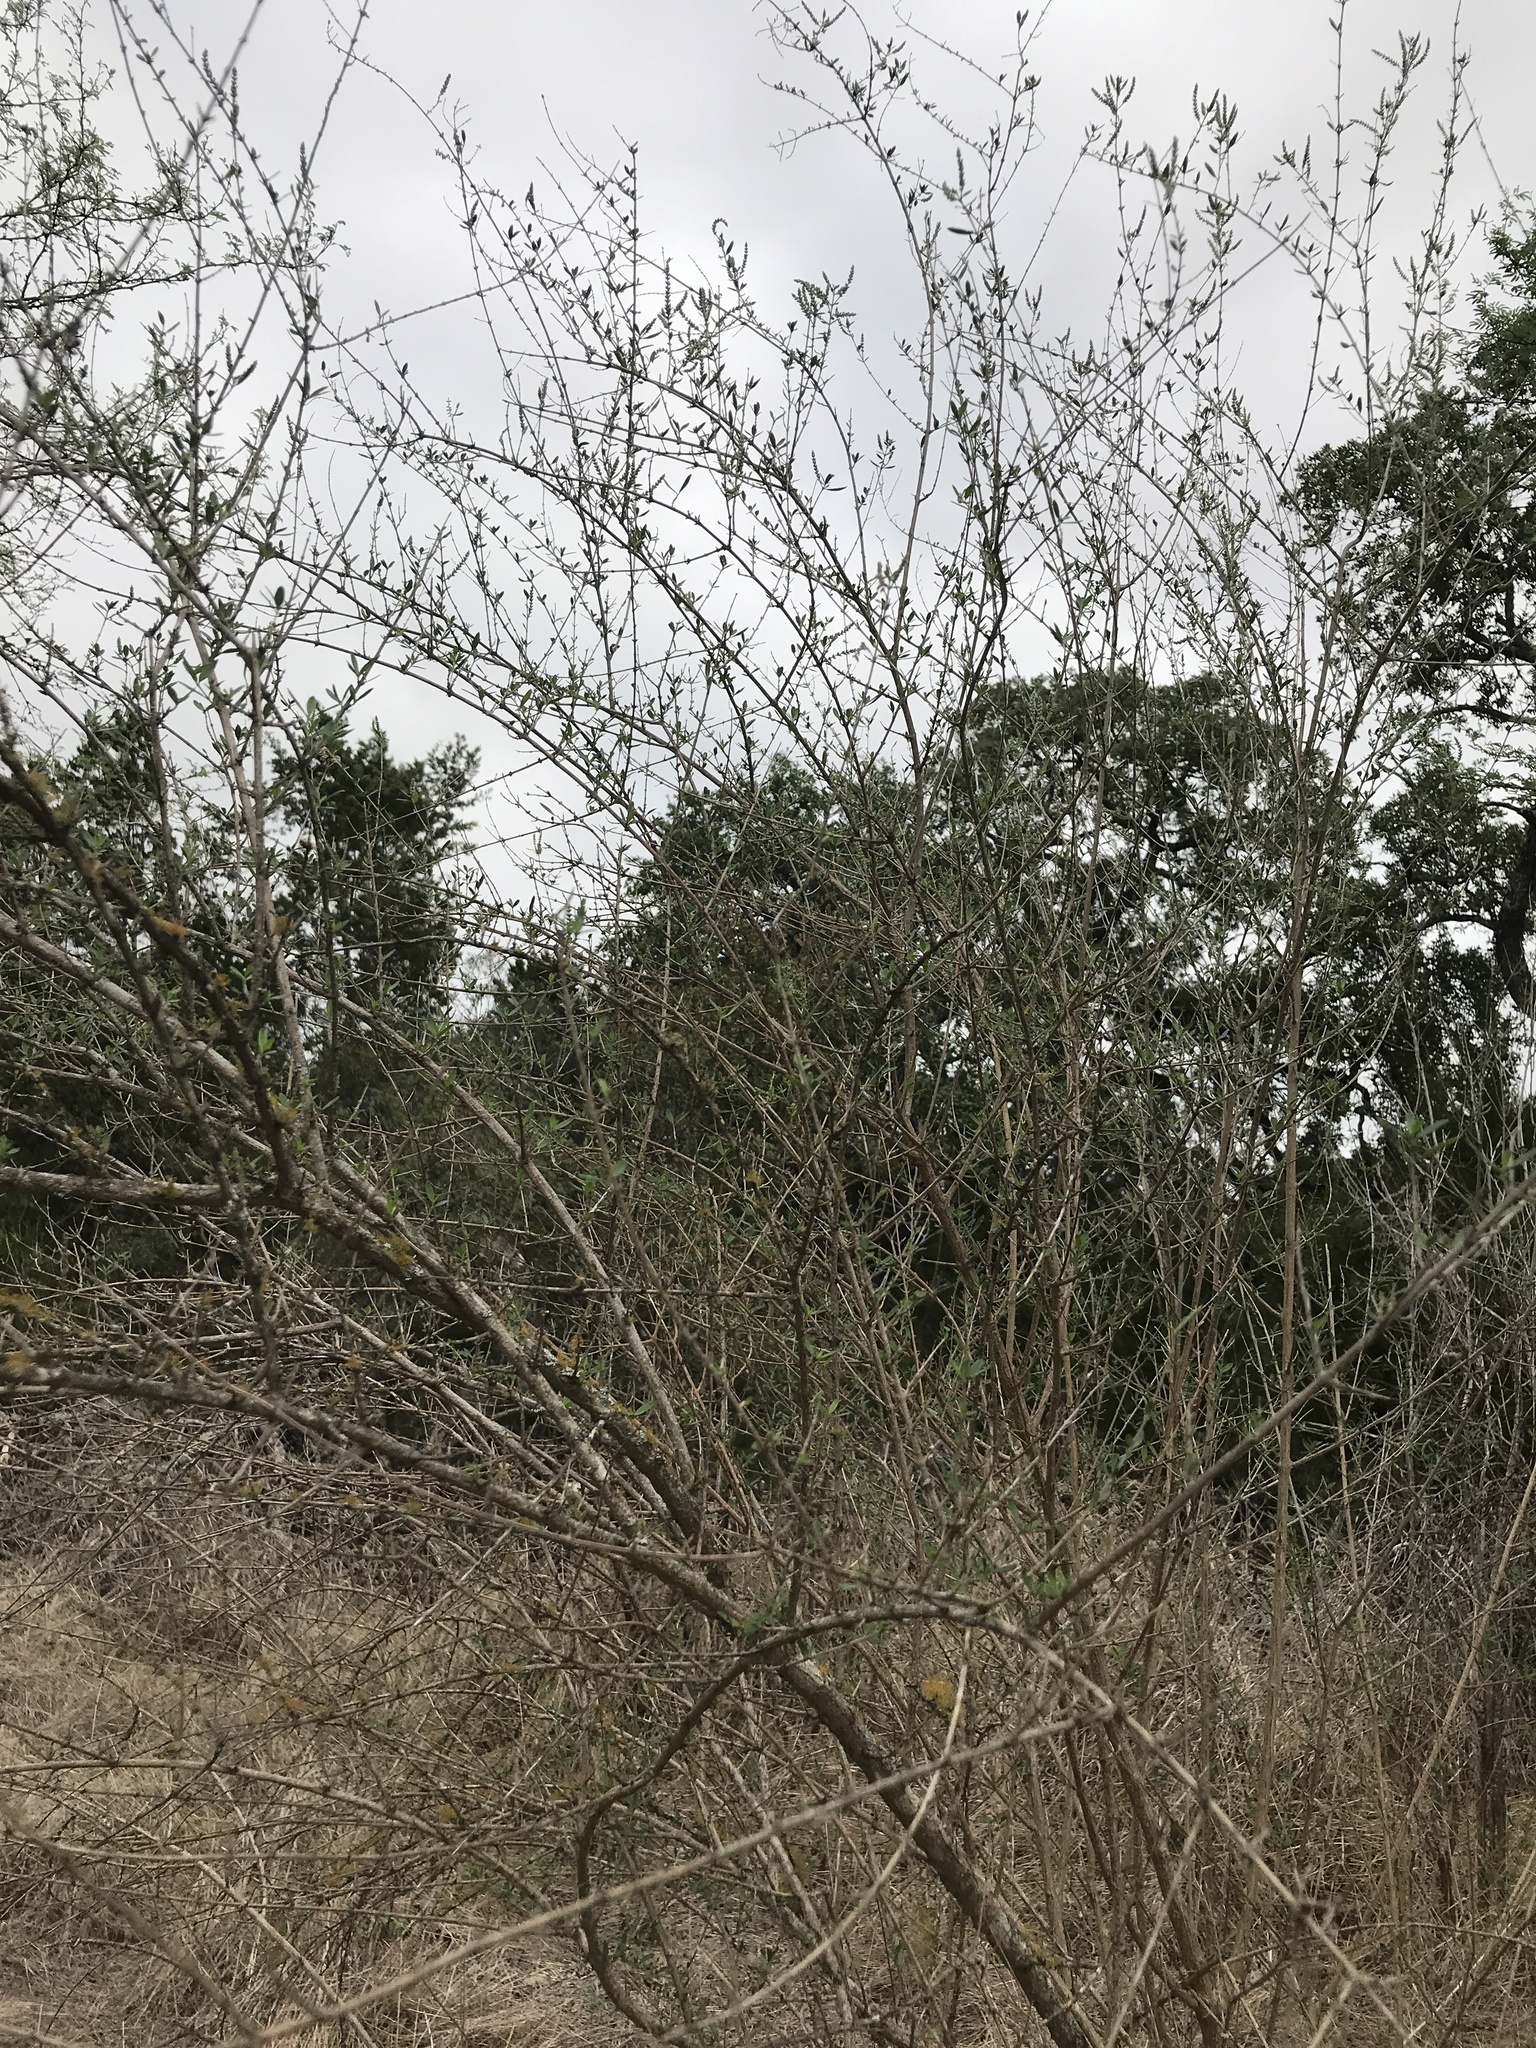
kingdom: Plantae
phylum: Tracheophyta
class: Magnoliopsida
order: Lamiales
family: Verbenaceae
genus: Aloysia
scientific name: Aloysia gratissima
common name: Common bee-brush
